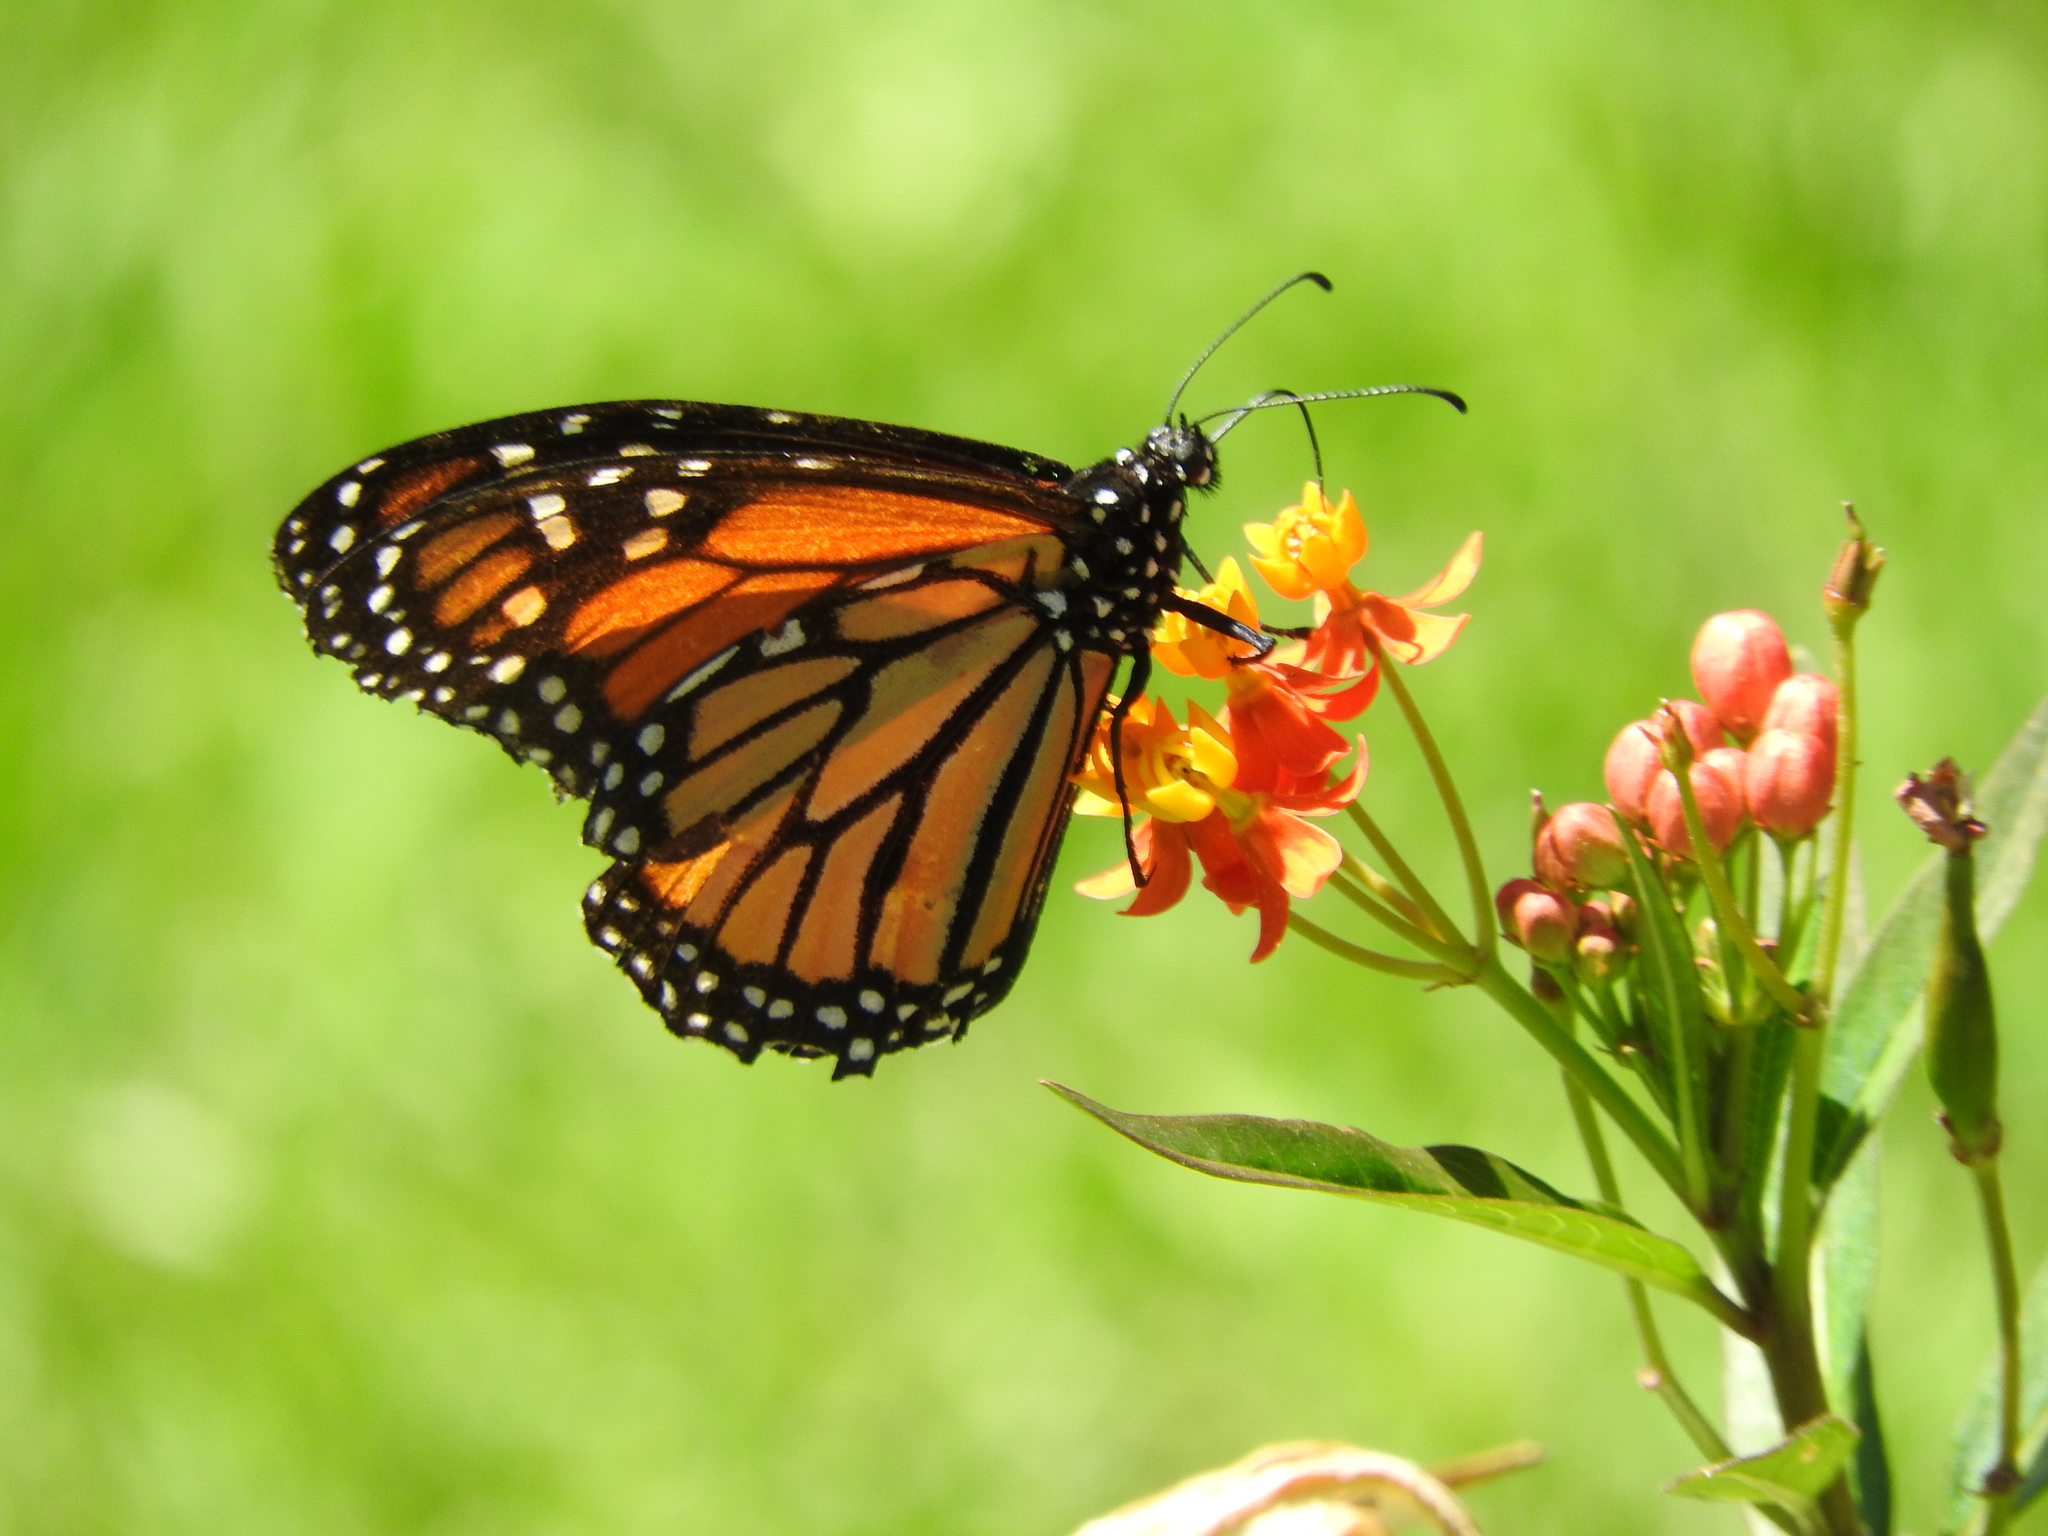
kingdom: Animalia
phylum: Arthropoda
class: Insecta
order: Lepidoptera
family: Nymphalidae
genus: Danaus
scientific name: Danaus plexippus
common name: Monarch
